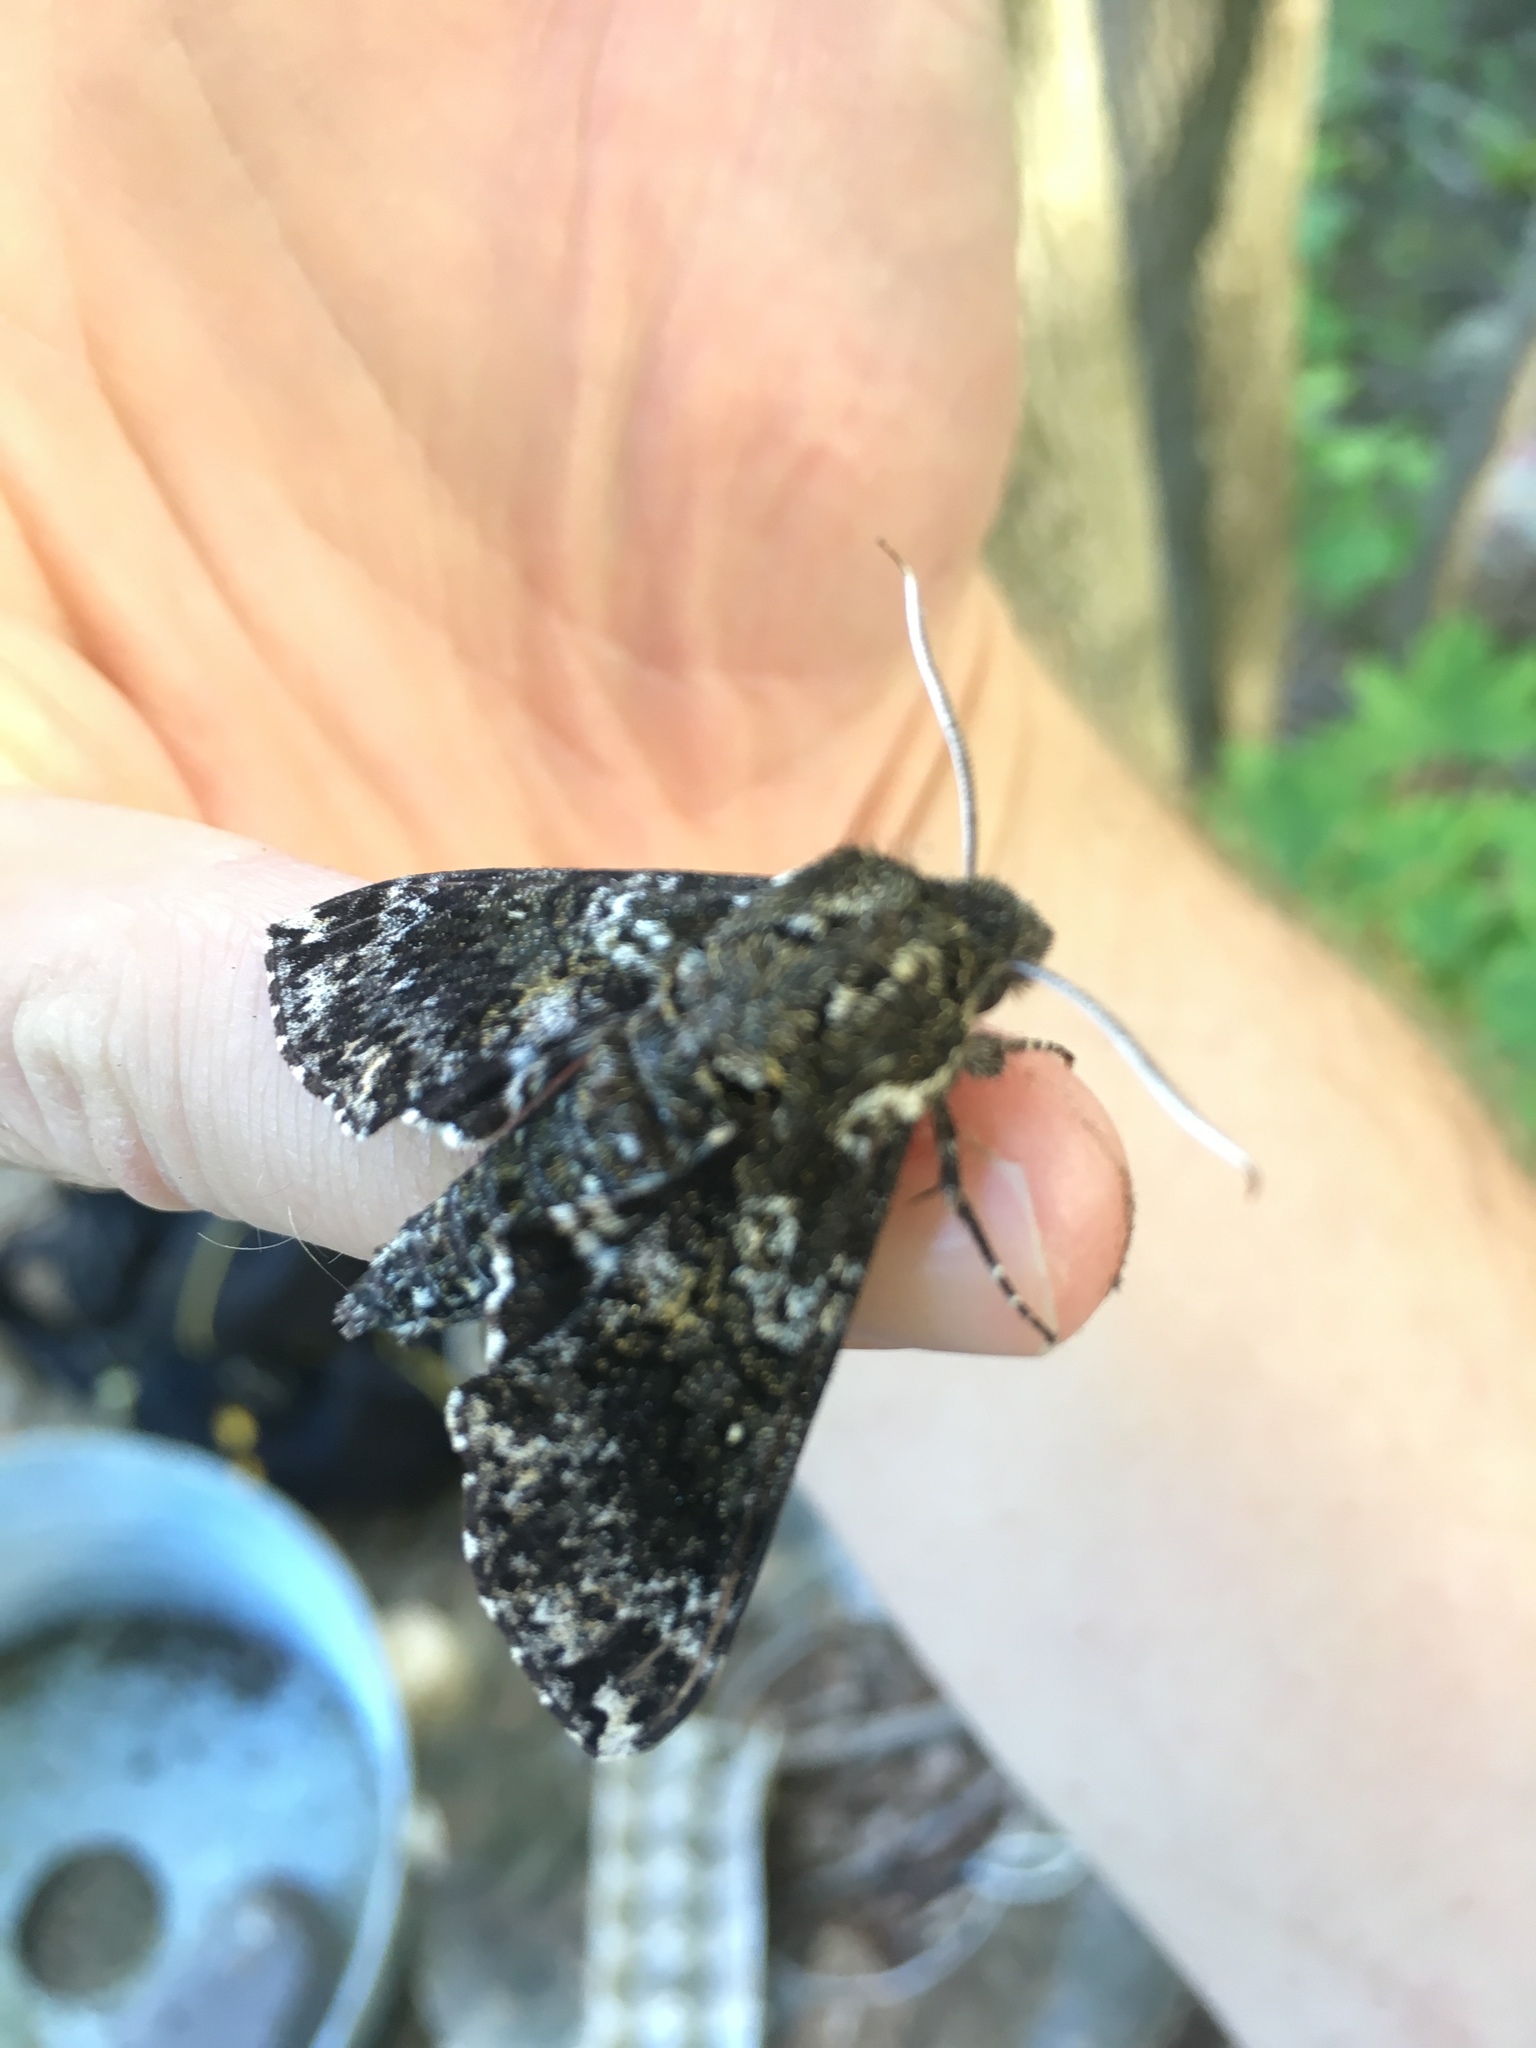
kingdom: Animalia
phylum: Arthropoda
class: Insecta
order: Lepidoptera
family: Sphingidae
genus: Dolba
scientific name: Dolba hyloeus
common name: Pawpaw sphinx
